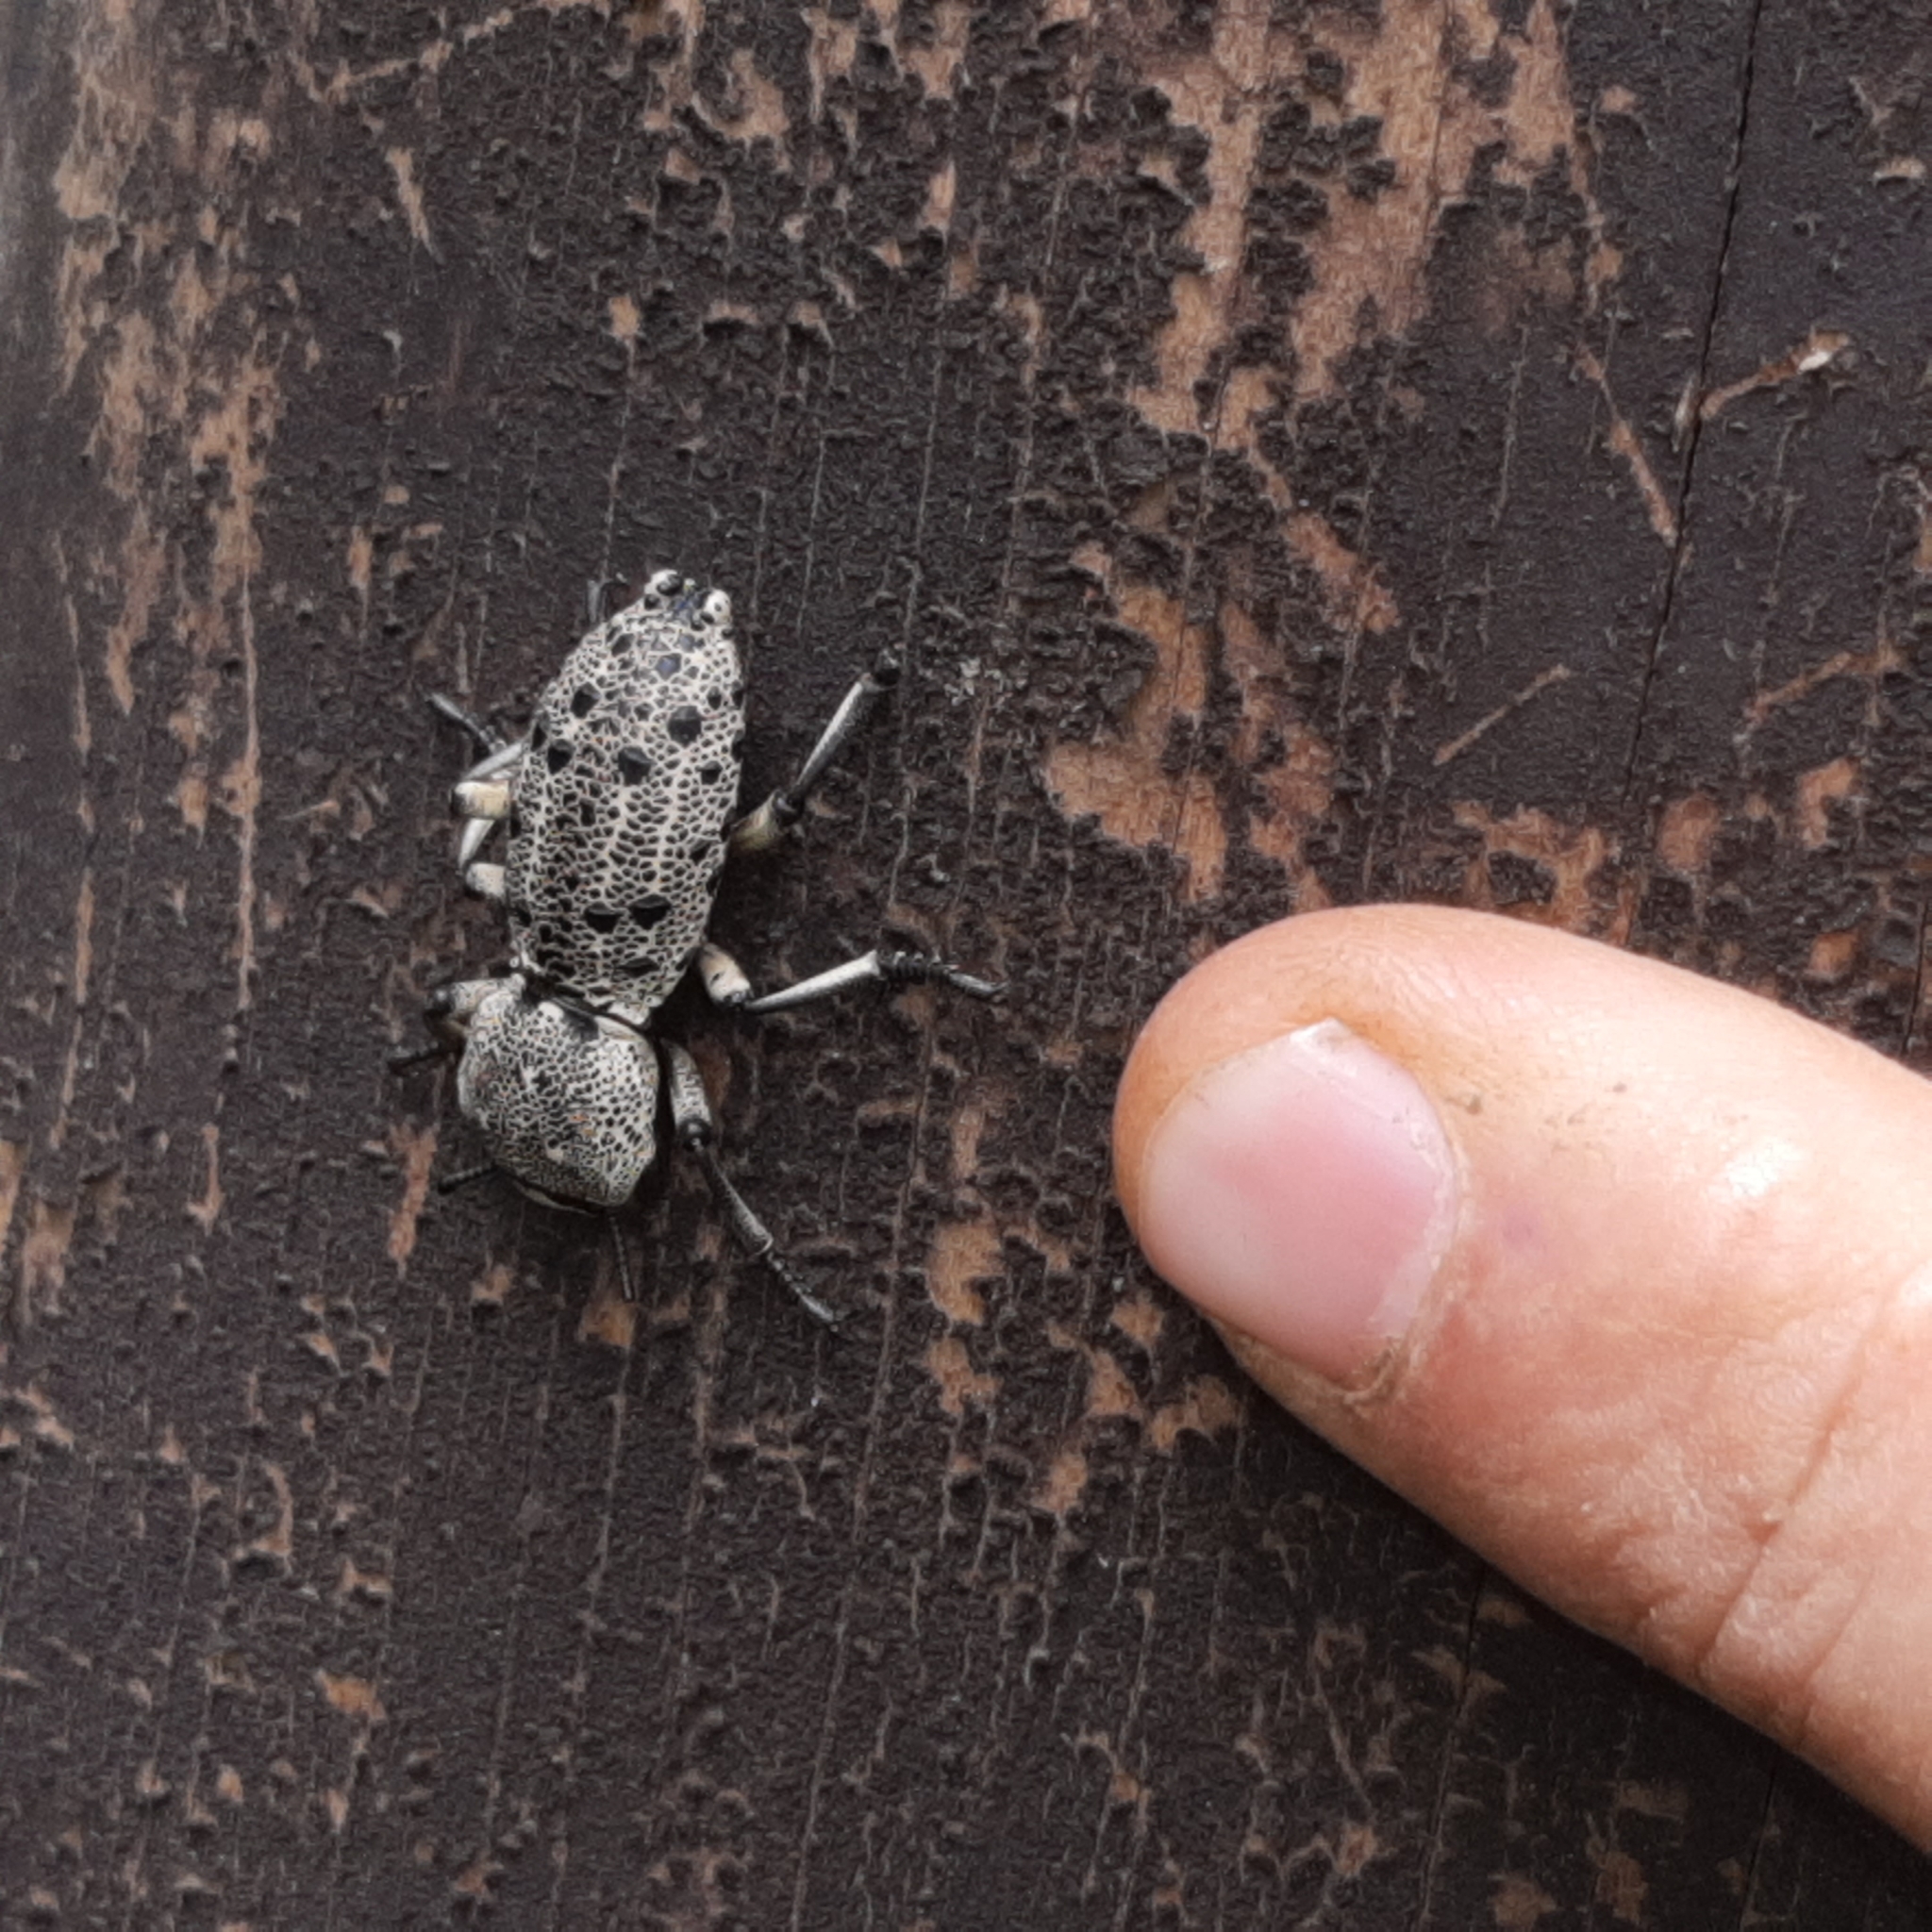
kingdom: Animalia
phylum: Arthropoda
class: Insecta
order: Coleoptera
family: Zopheridae
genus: Zopherus
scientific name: Zopherus
